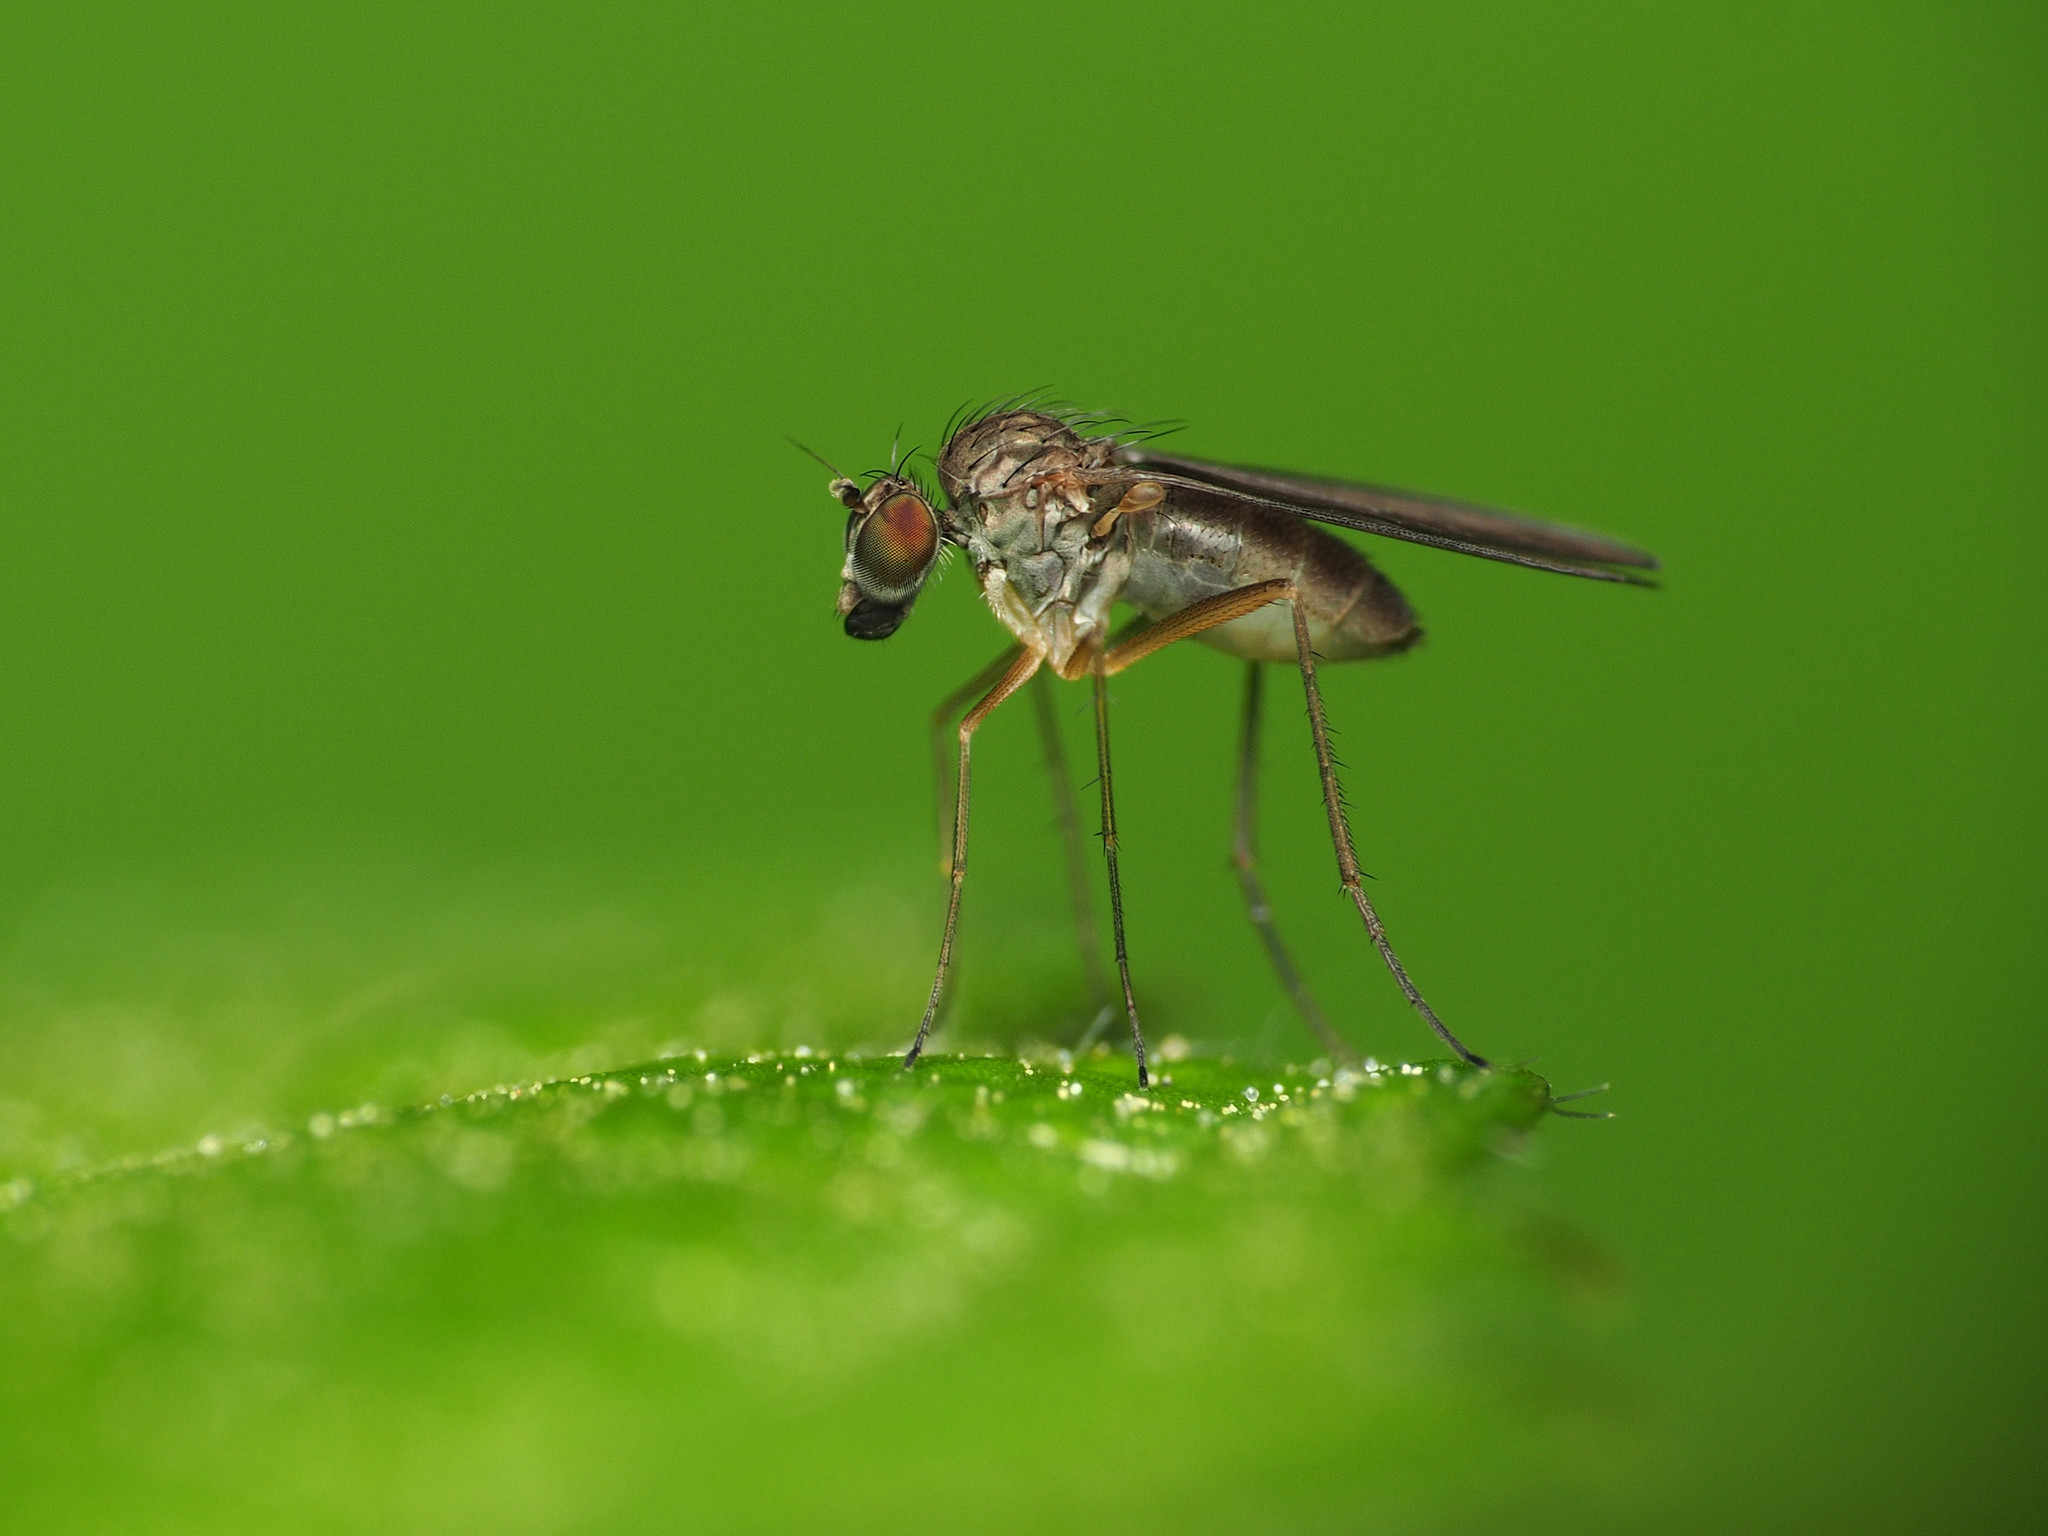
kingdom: Animalia
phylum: Arthropoda
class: Insecta
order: Diptera
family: Dolichopodidae
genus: Sympycnus
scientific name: Sympycnus lineatus
